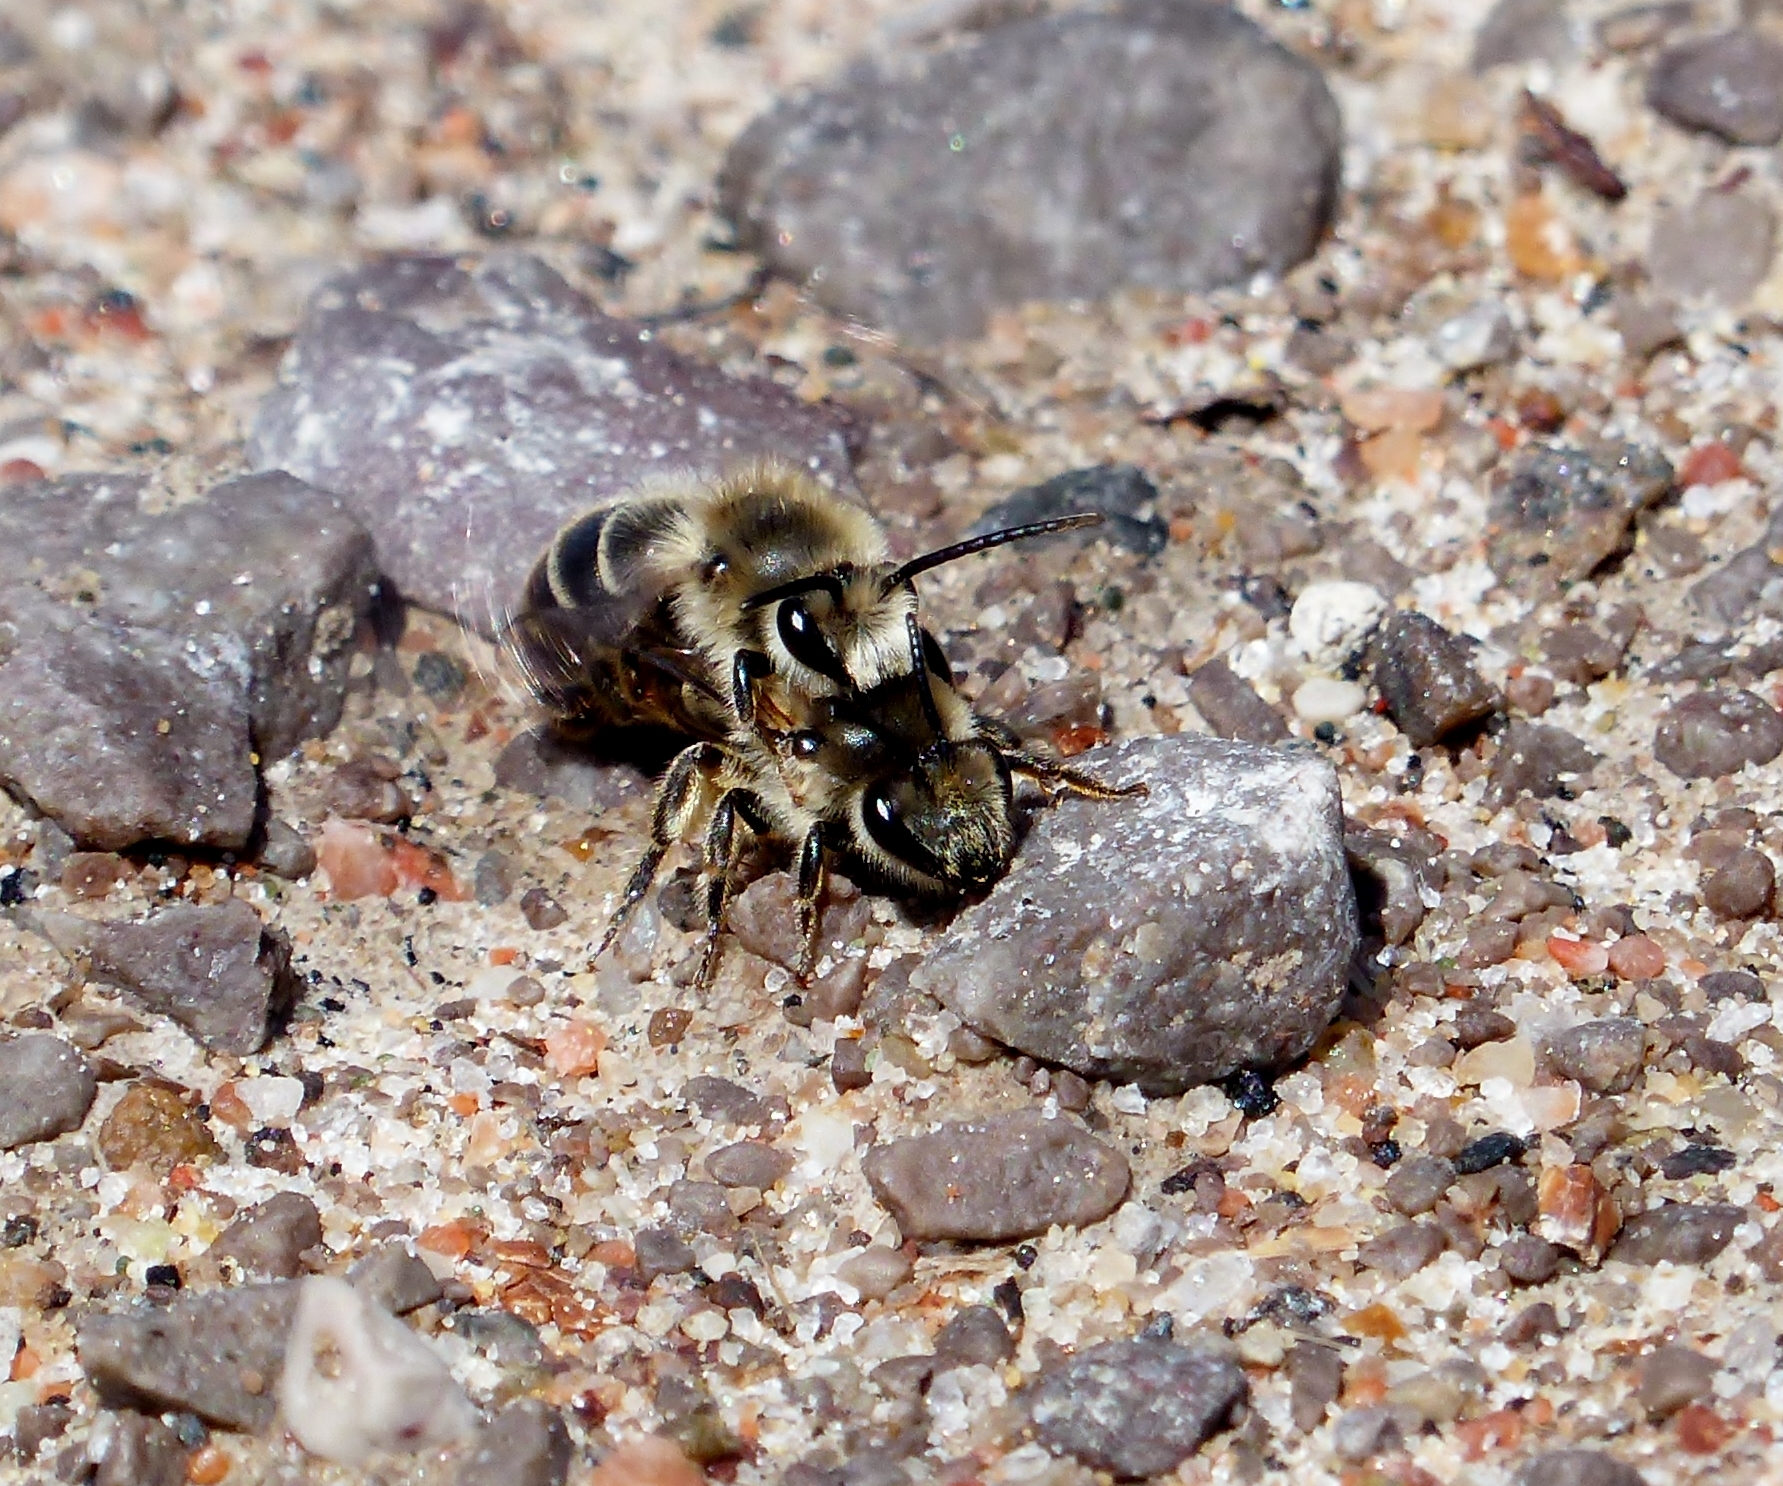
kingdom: Animalia
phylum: Arthropoda
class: Insecta
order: Hymenoptera
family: Colletidae
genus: Colletes
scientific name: Colletes inaequalis
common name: Unequal cellophane bee
